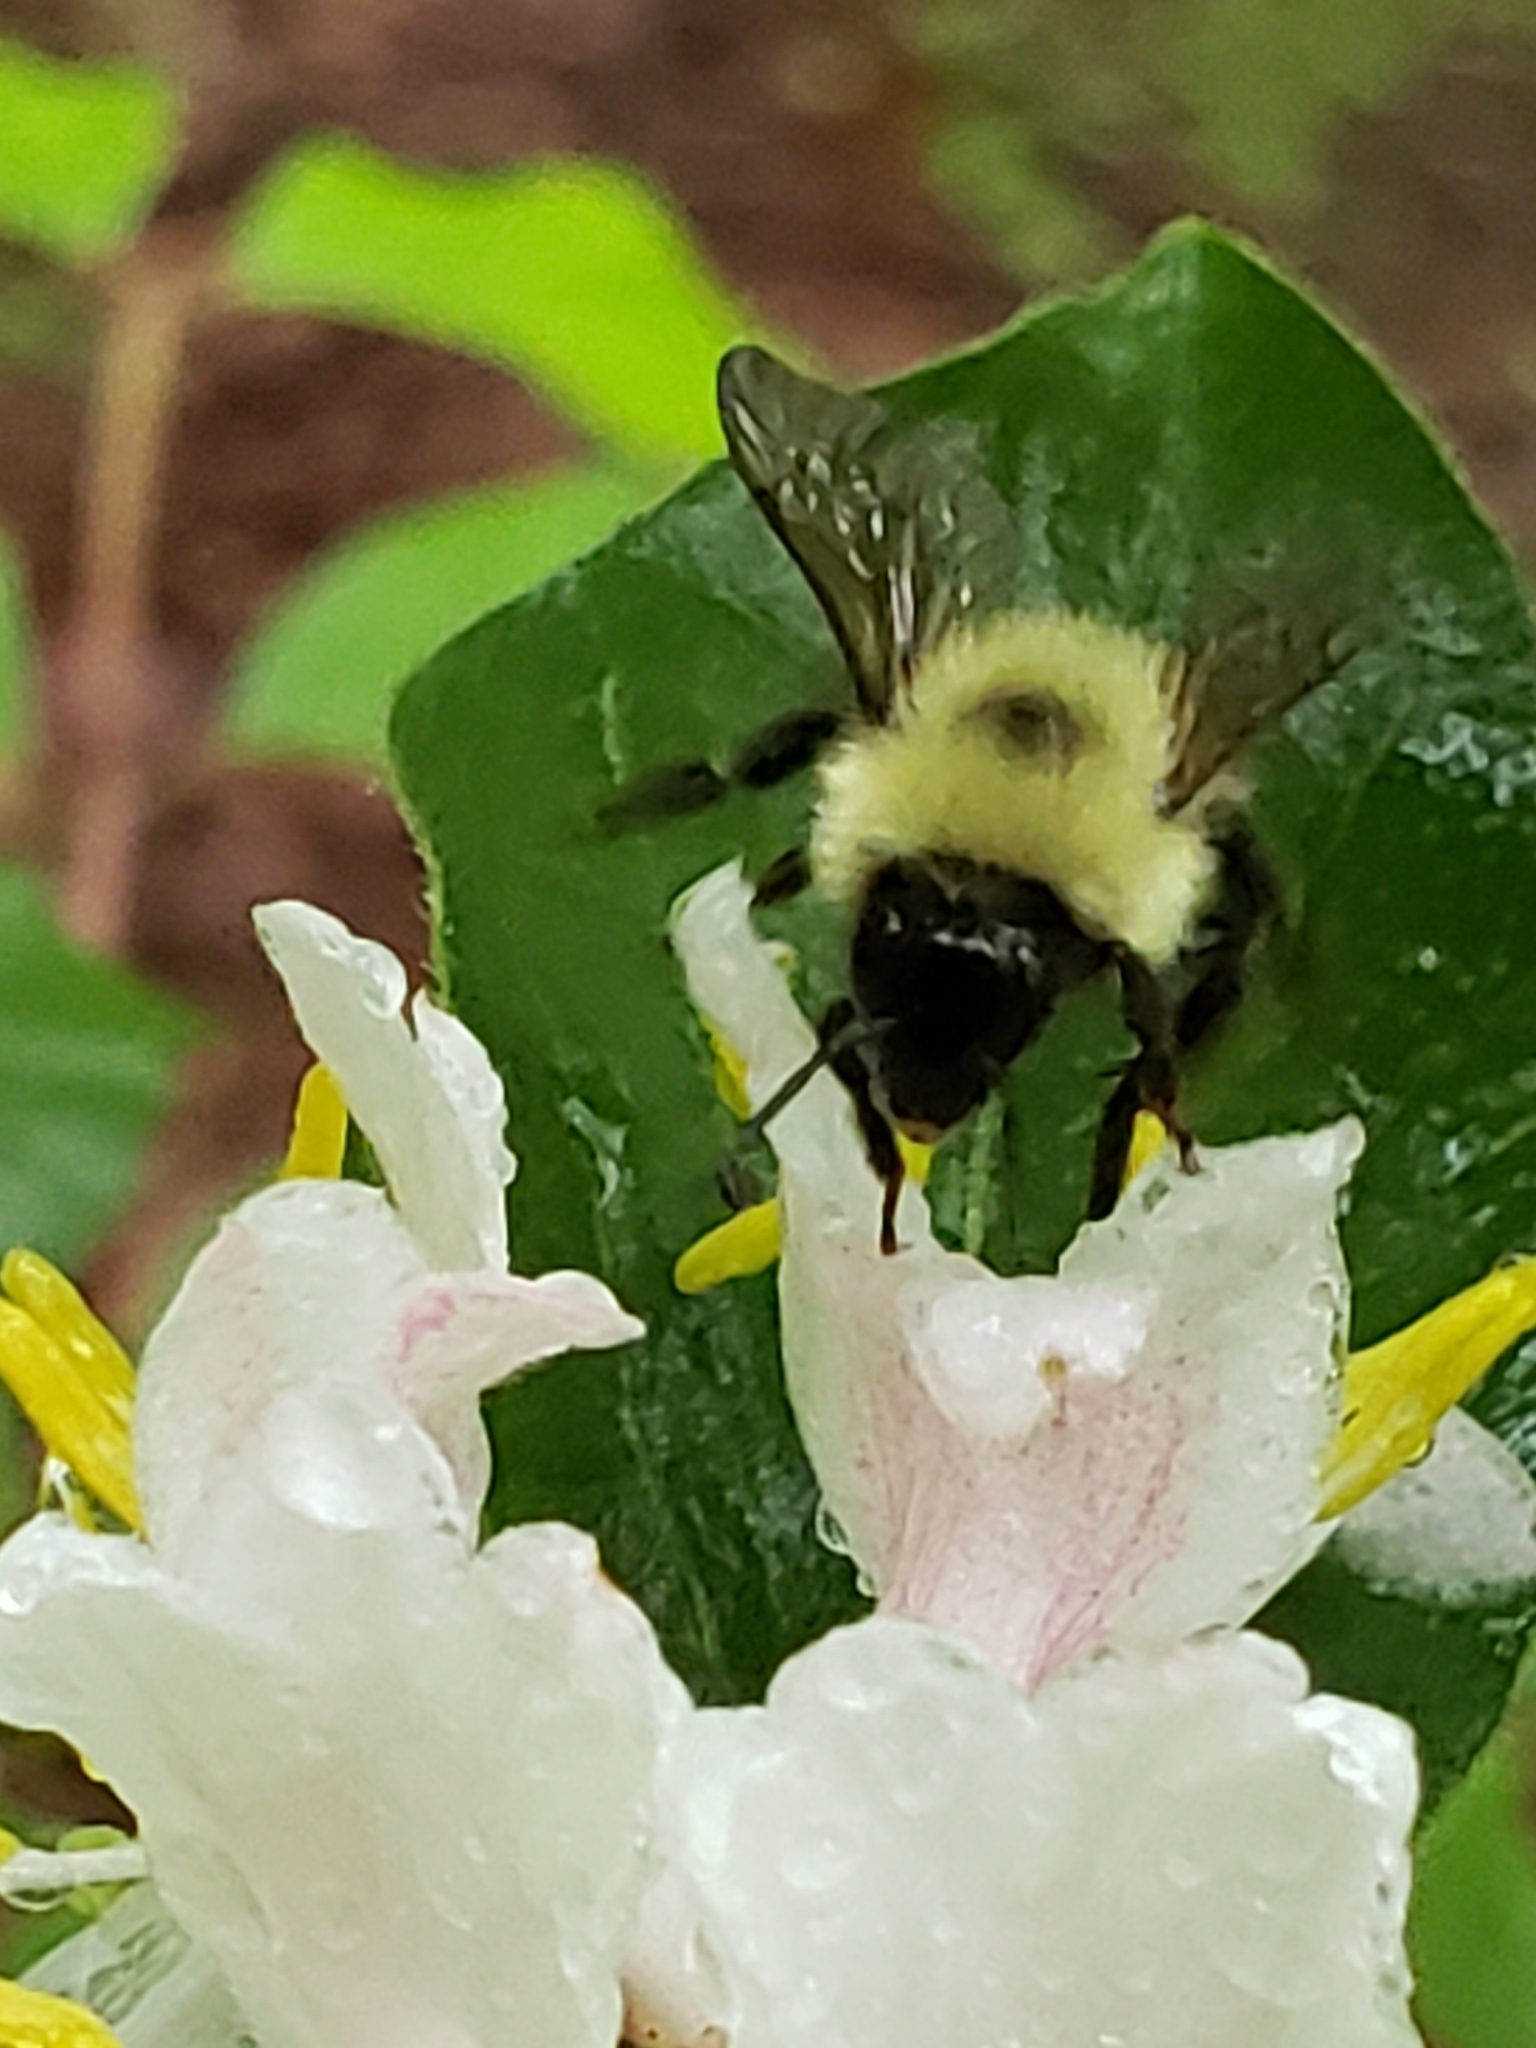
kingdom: Animalia
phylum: Arthropoda
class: Insecta
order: Hymenoptera
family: Apidae
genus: Bombus
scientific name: Bombus bimaculatus
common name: Two-spotted bumble bee
